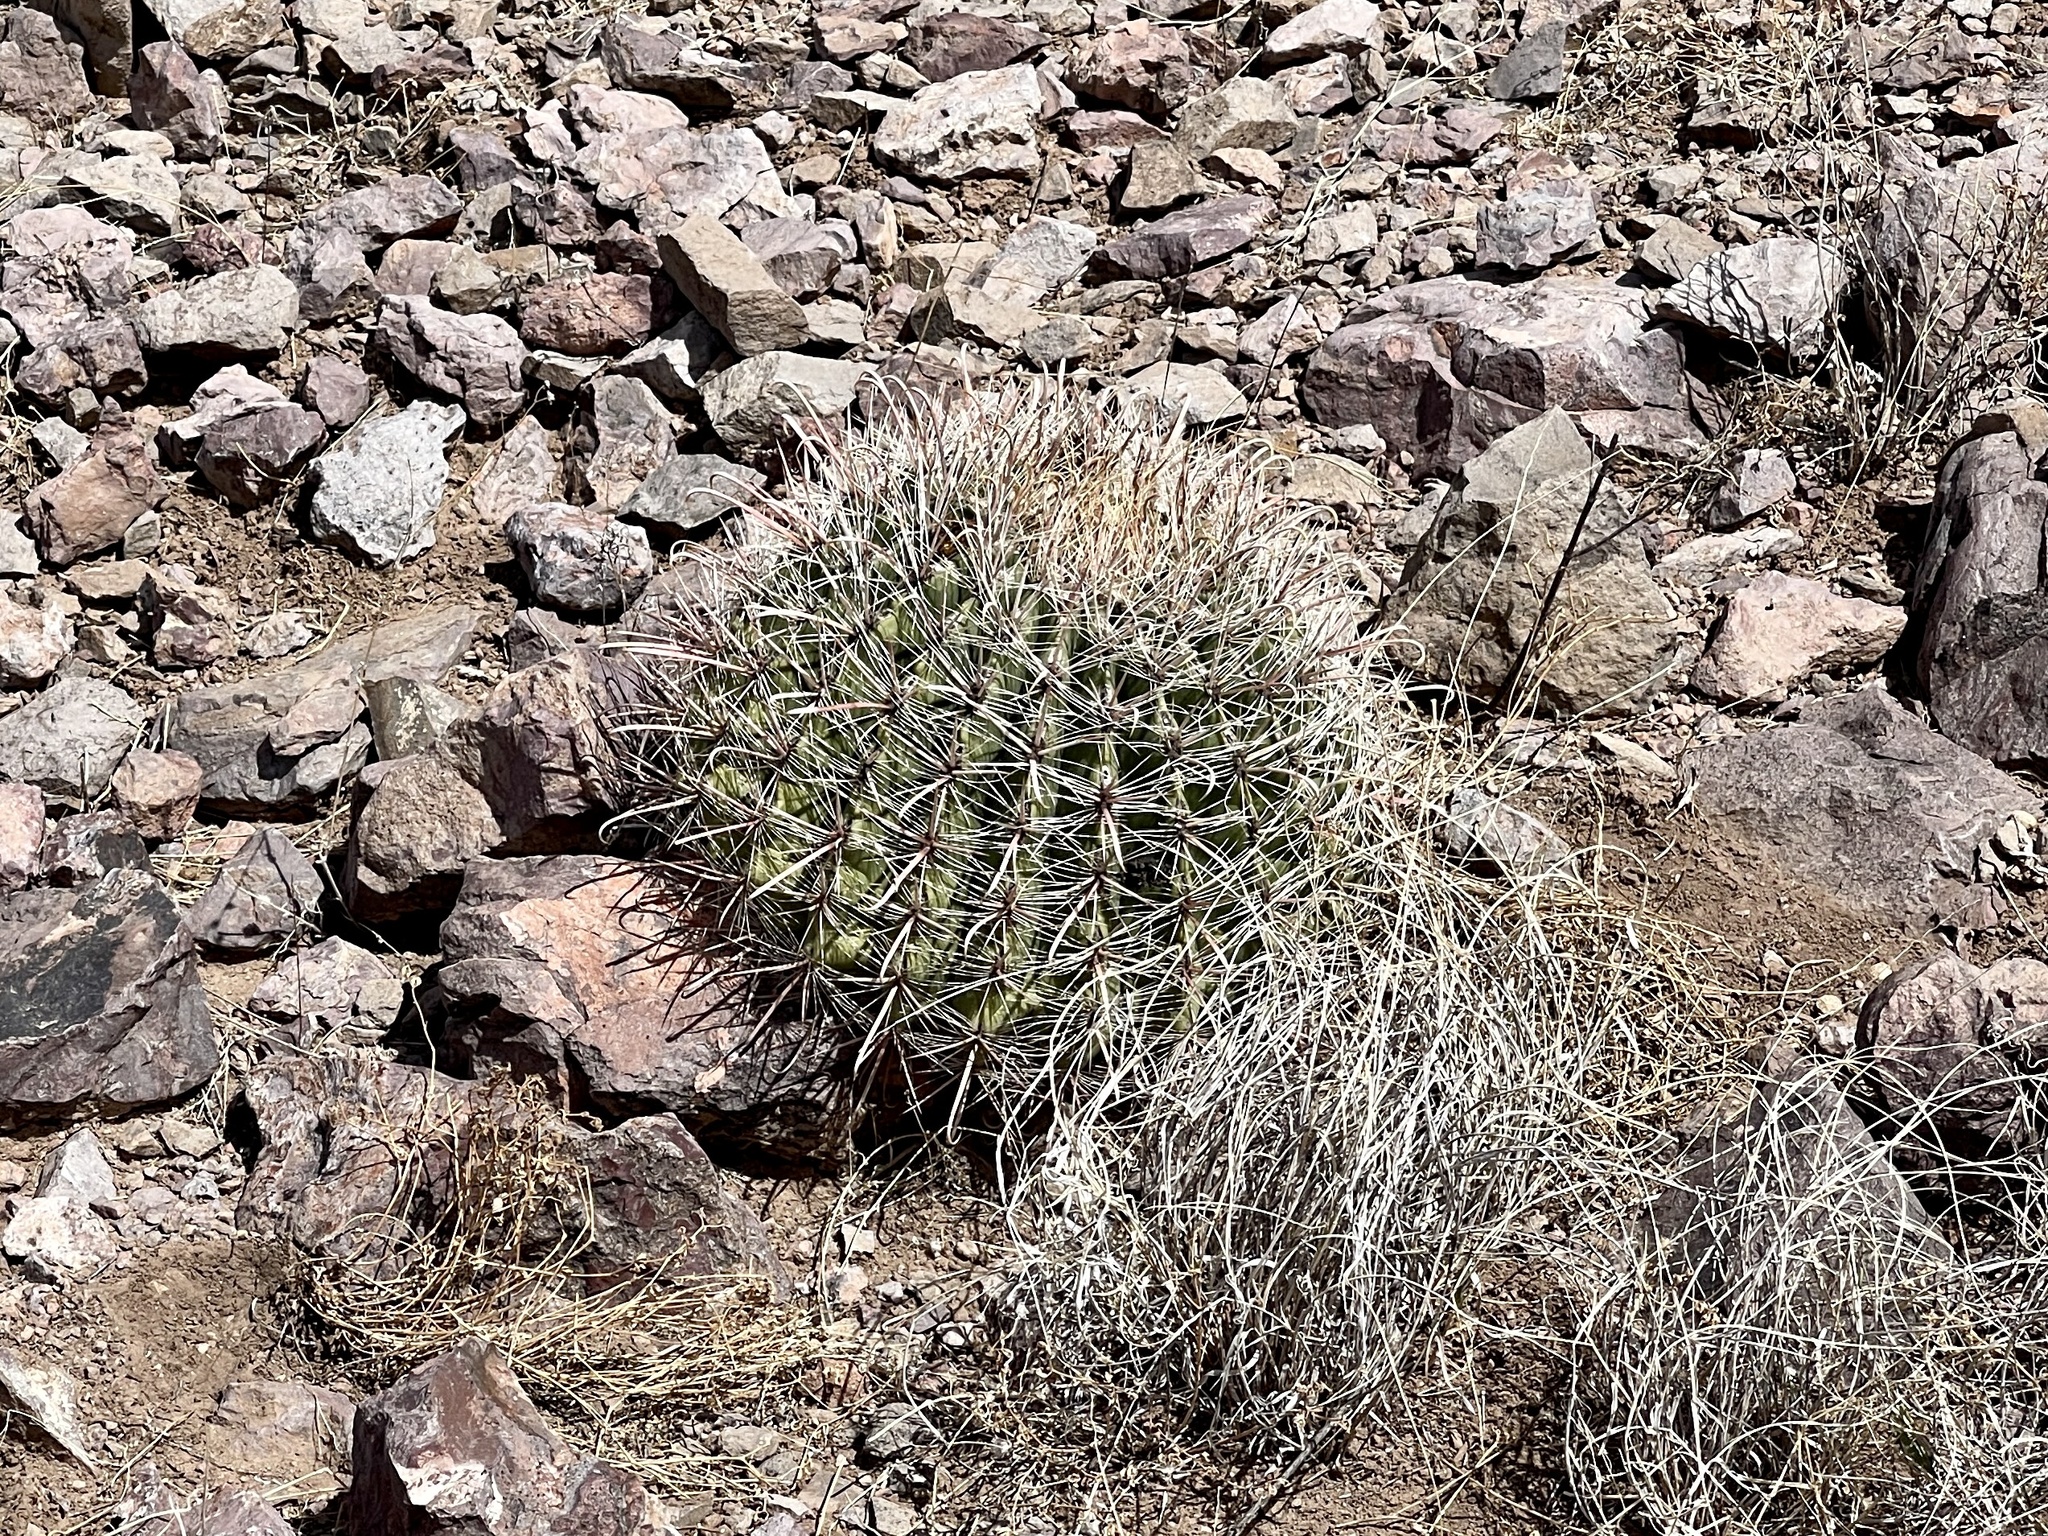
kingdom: Plantae
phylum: Tracheophyta
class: Magnoliopsida
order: Caryophyllales
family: Cactaceae
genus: Ferocactus
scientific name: Ferocactus wislizeni
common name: Candy barrel cactus
